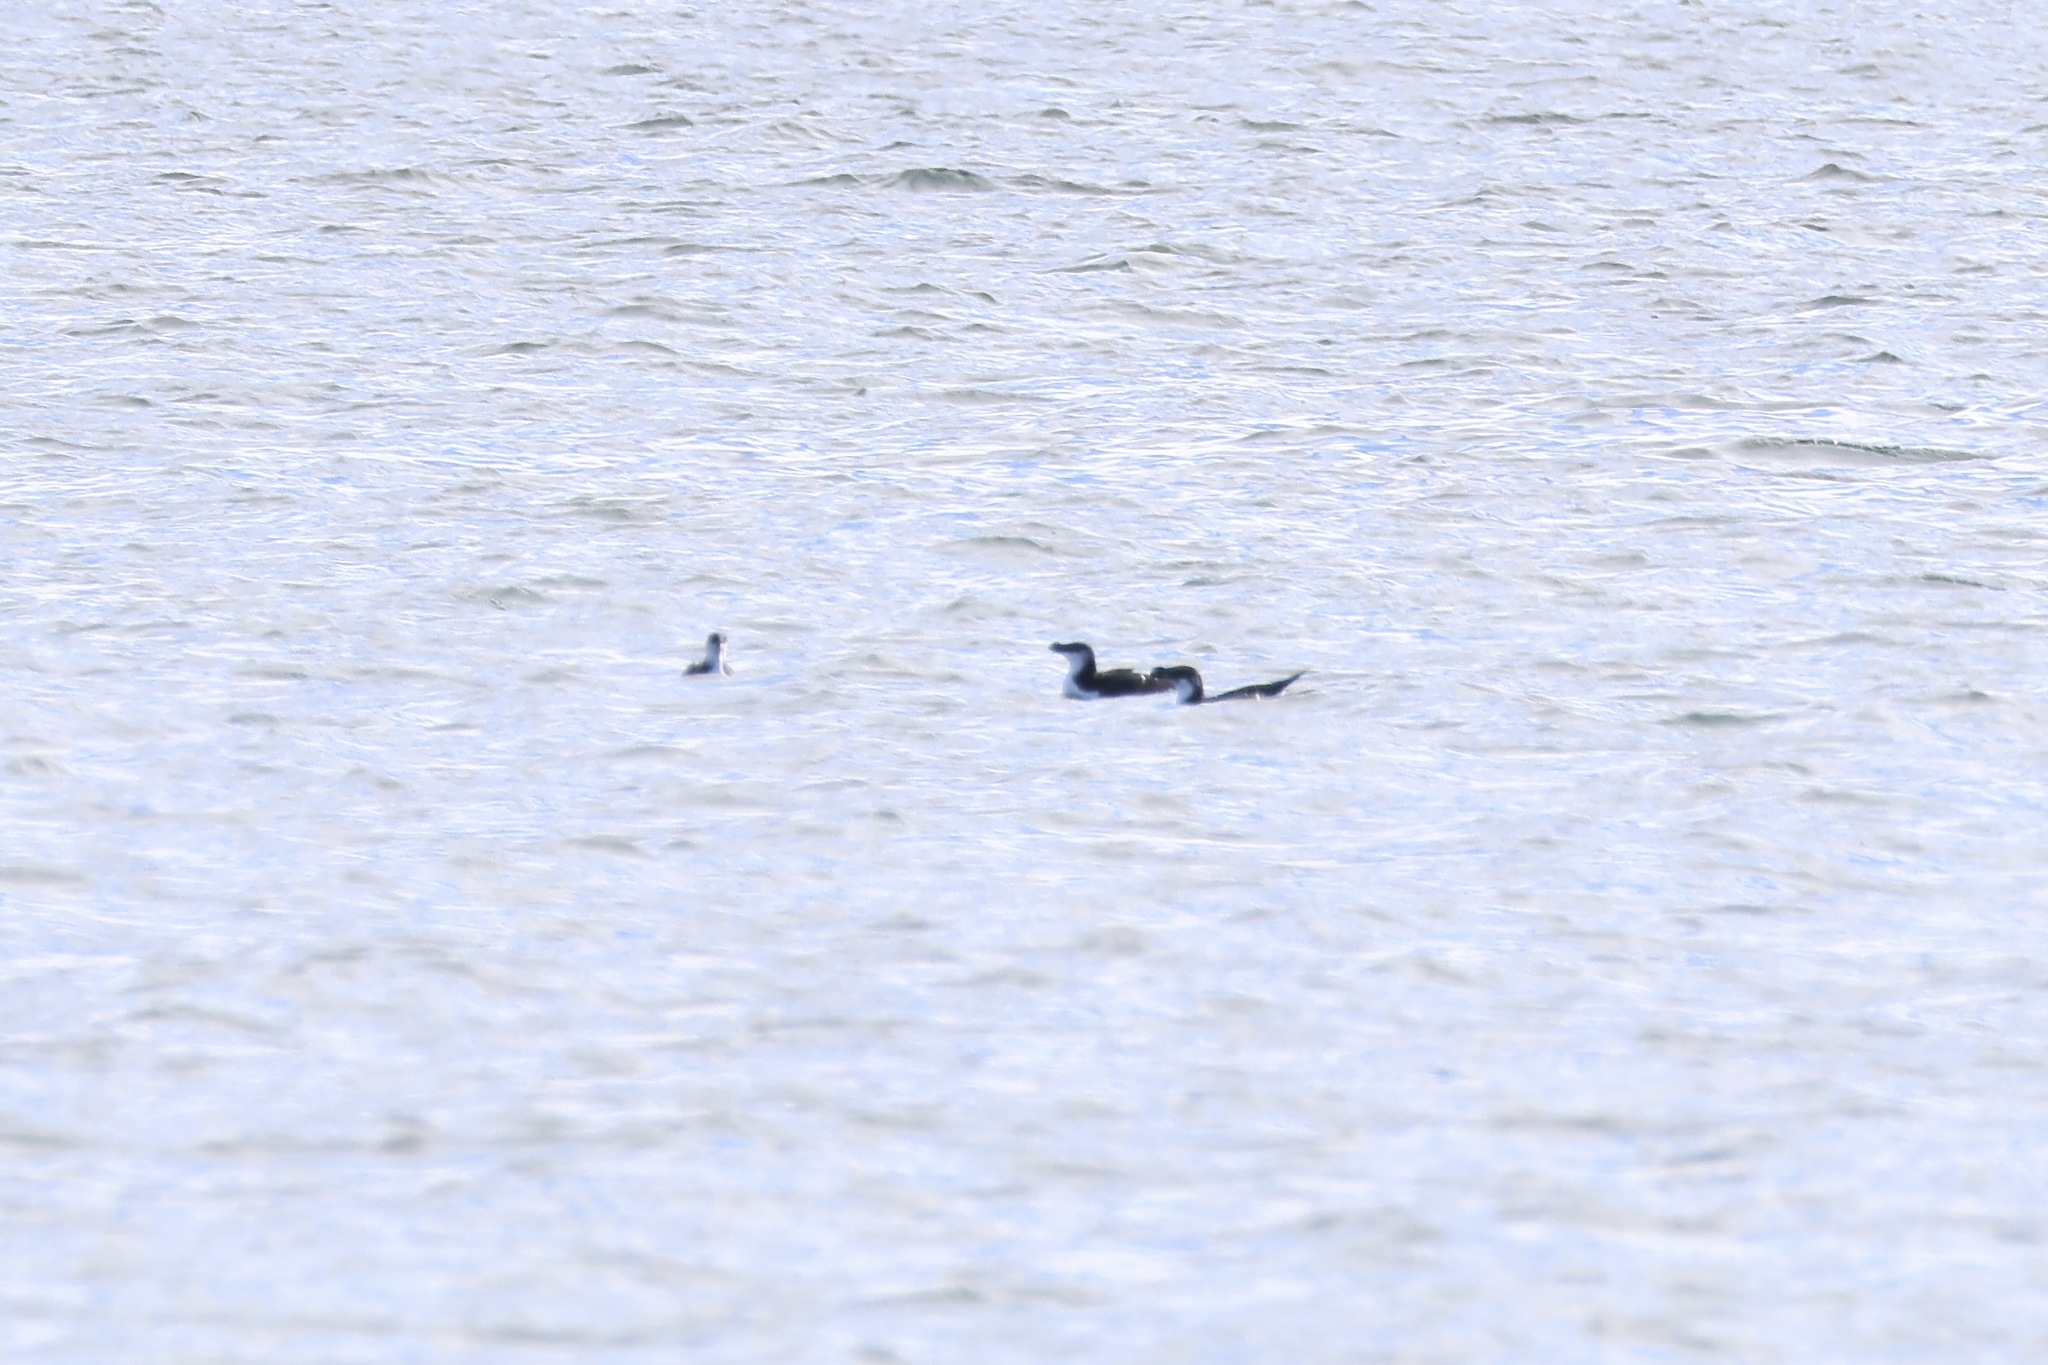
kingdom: Animalia
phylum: Chordata
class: Aves
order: Charadriiformes
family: Alcidae
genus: Alca
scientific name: Alca torda
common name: Razorbill
